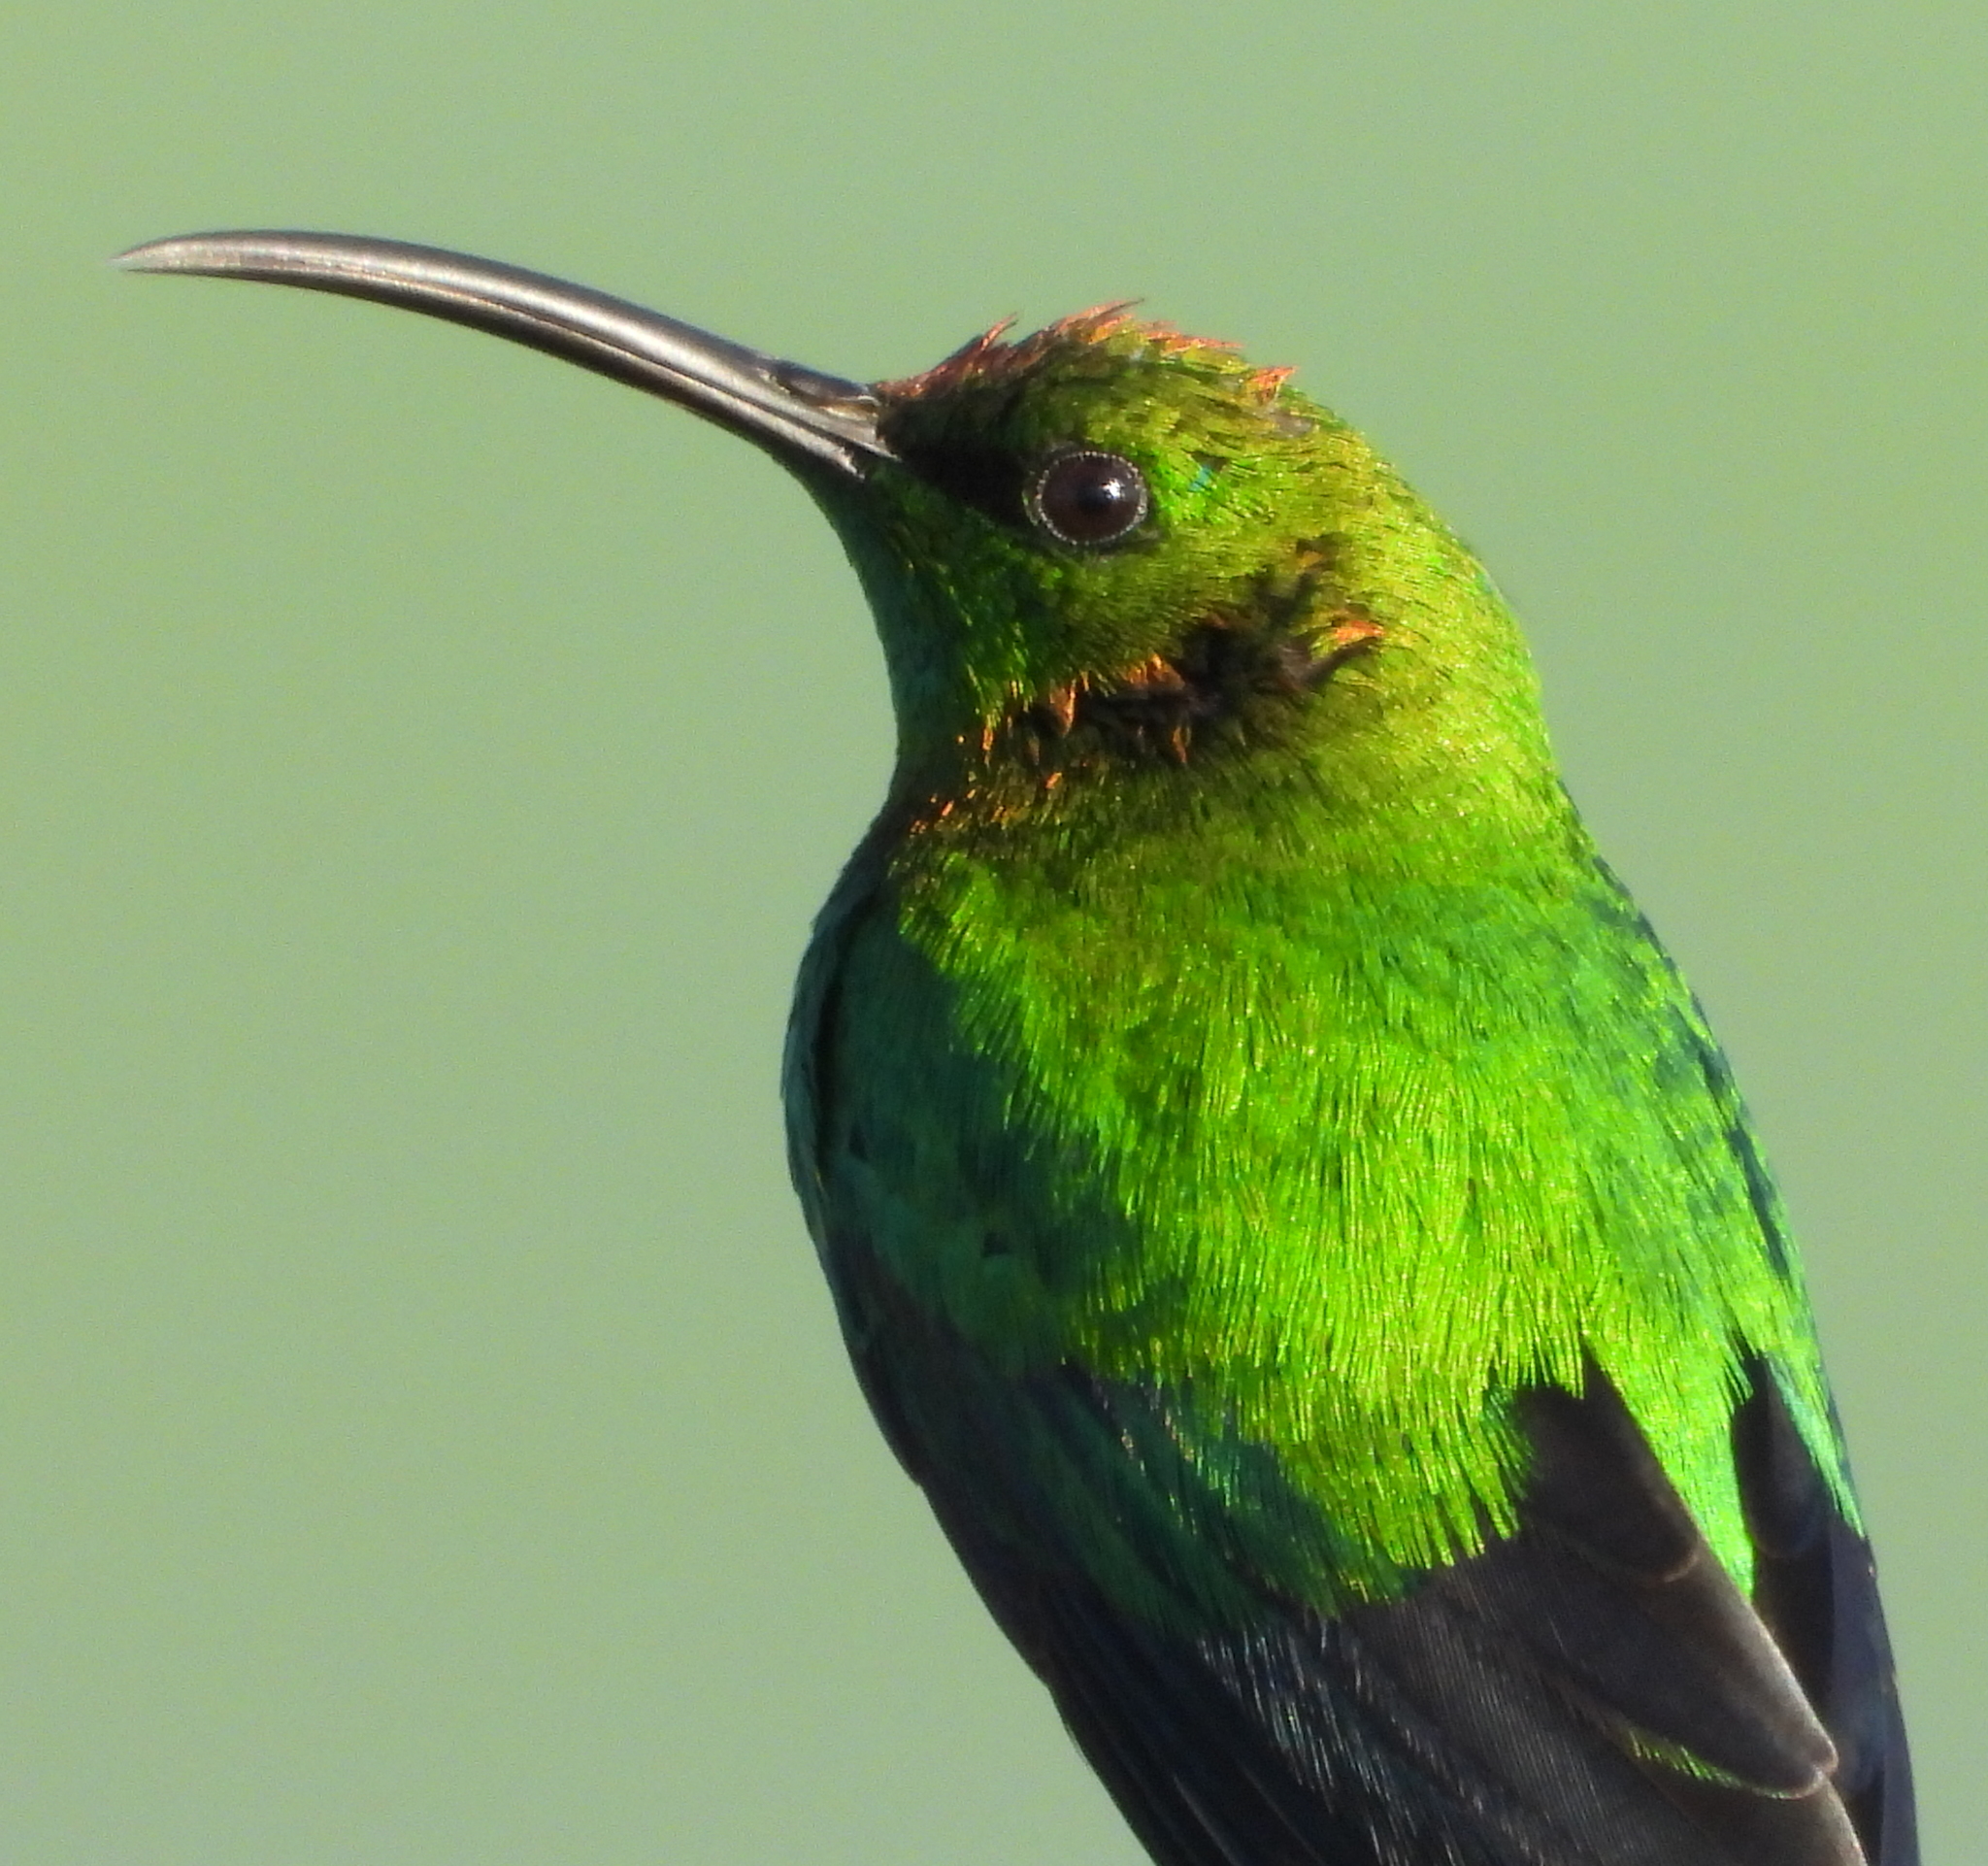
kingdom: Animalia
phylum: Chordata
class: Aves
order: Passeriformes
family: Nectariniidae
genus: Nectarinia
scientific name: Nectarinia famosa
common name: Malachite sunbird
